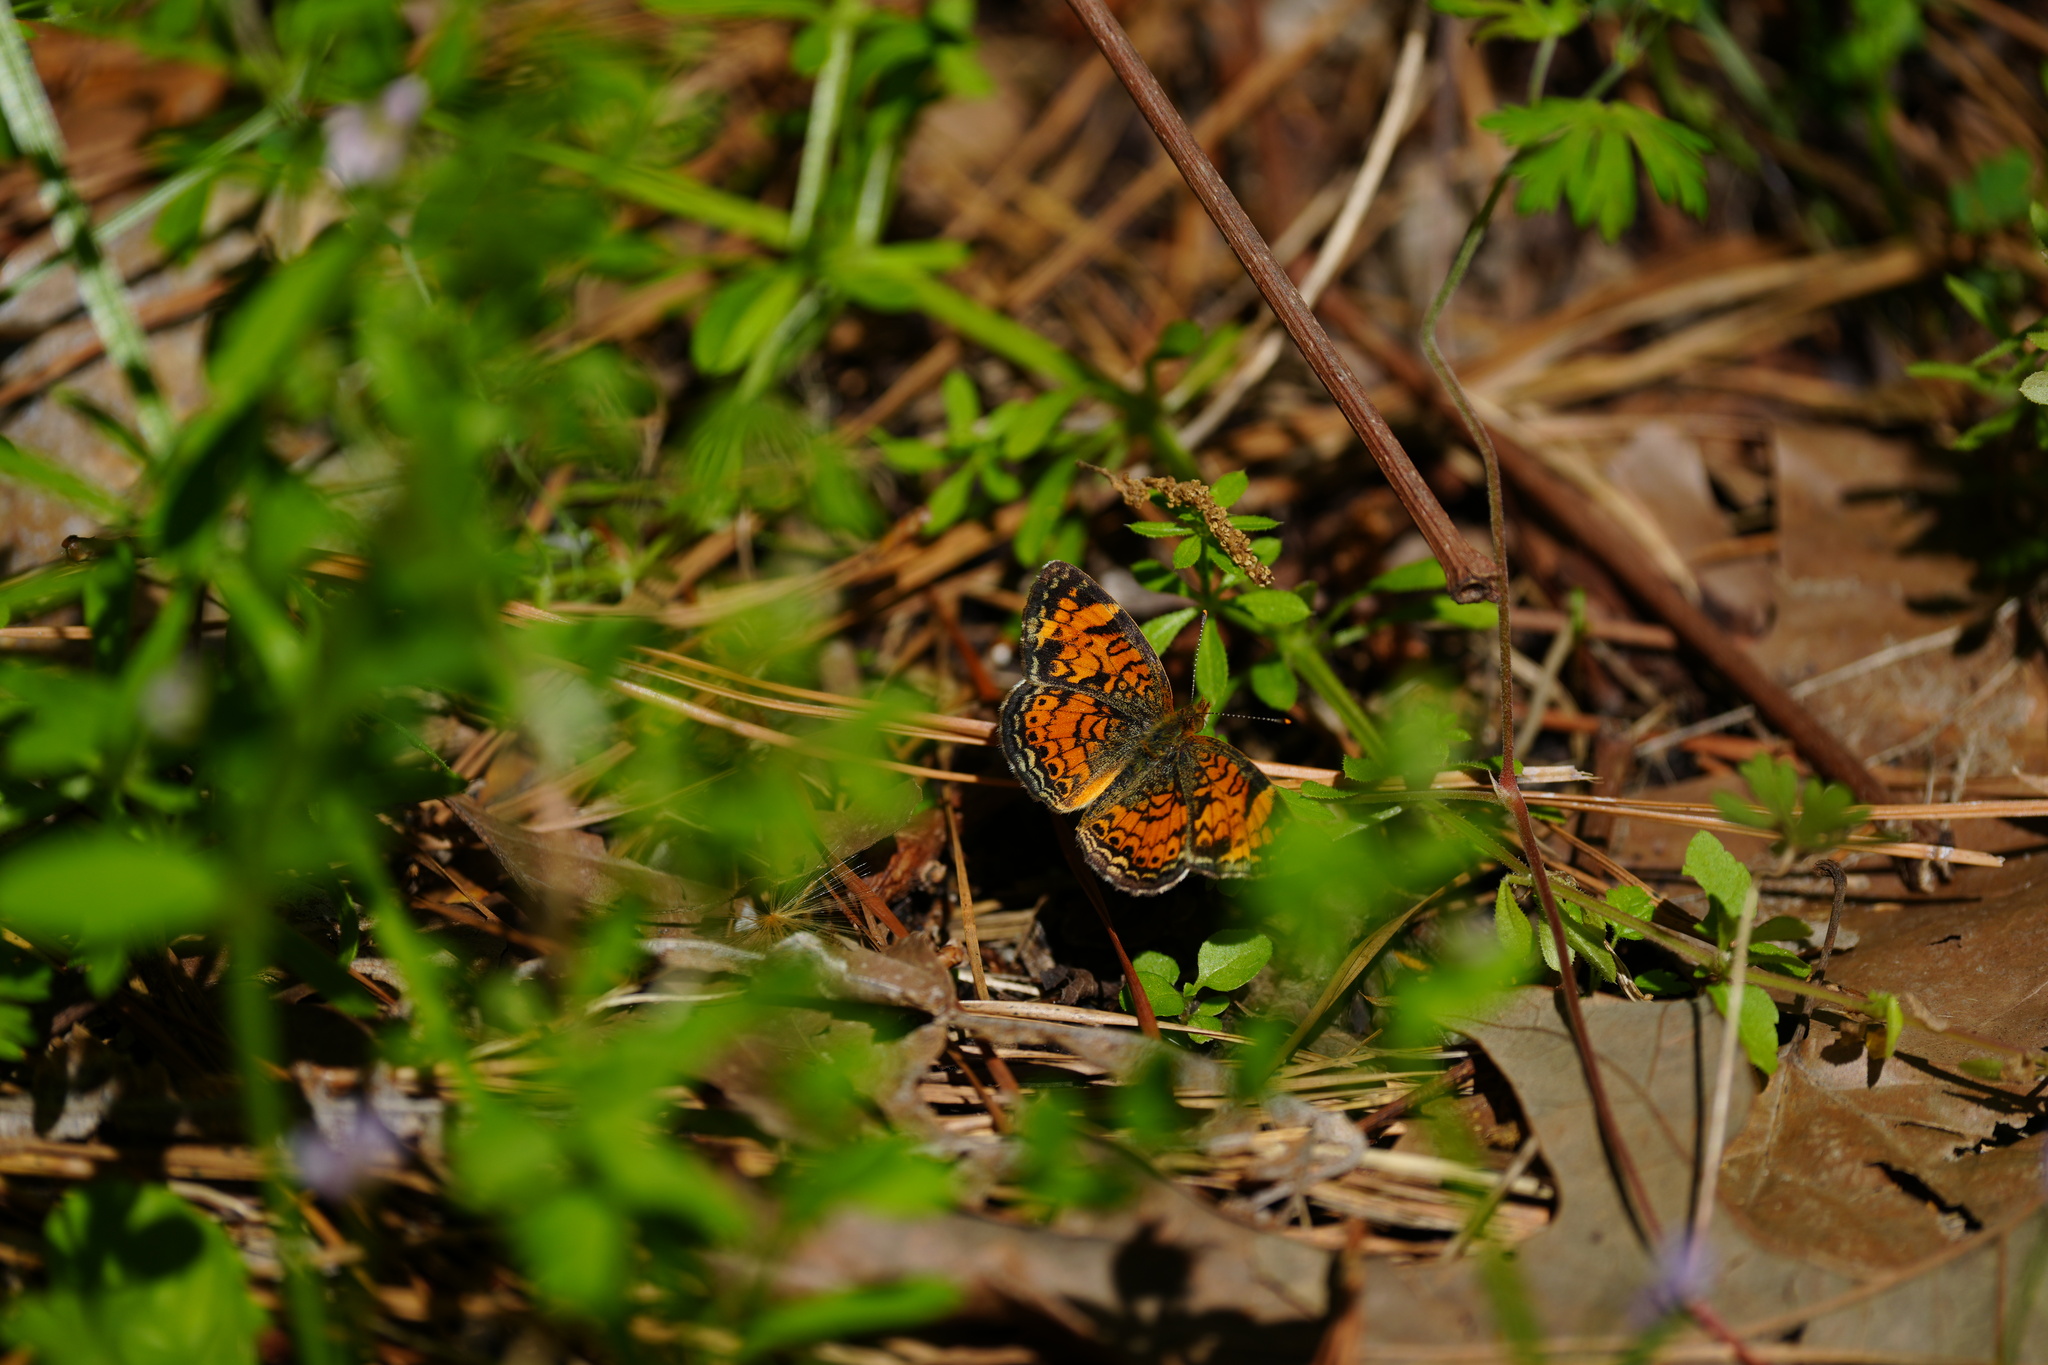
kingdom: Animalia
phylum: Arthropoda
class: Insecta
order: Lepidoptera
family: Nymphalidae
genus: Phyciodes
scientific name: Phyciodes tharos
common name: Pearl crescent
